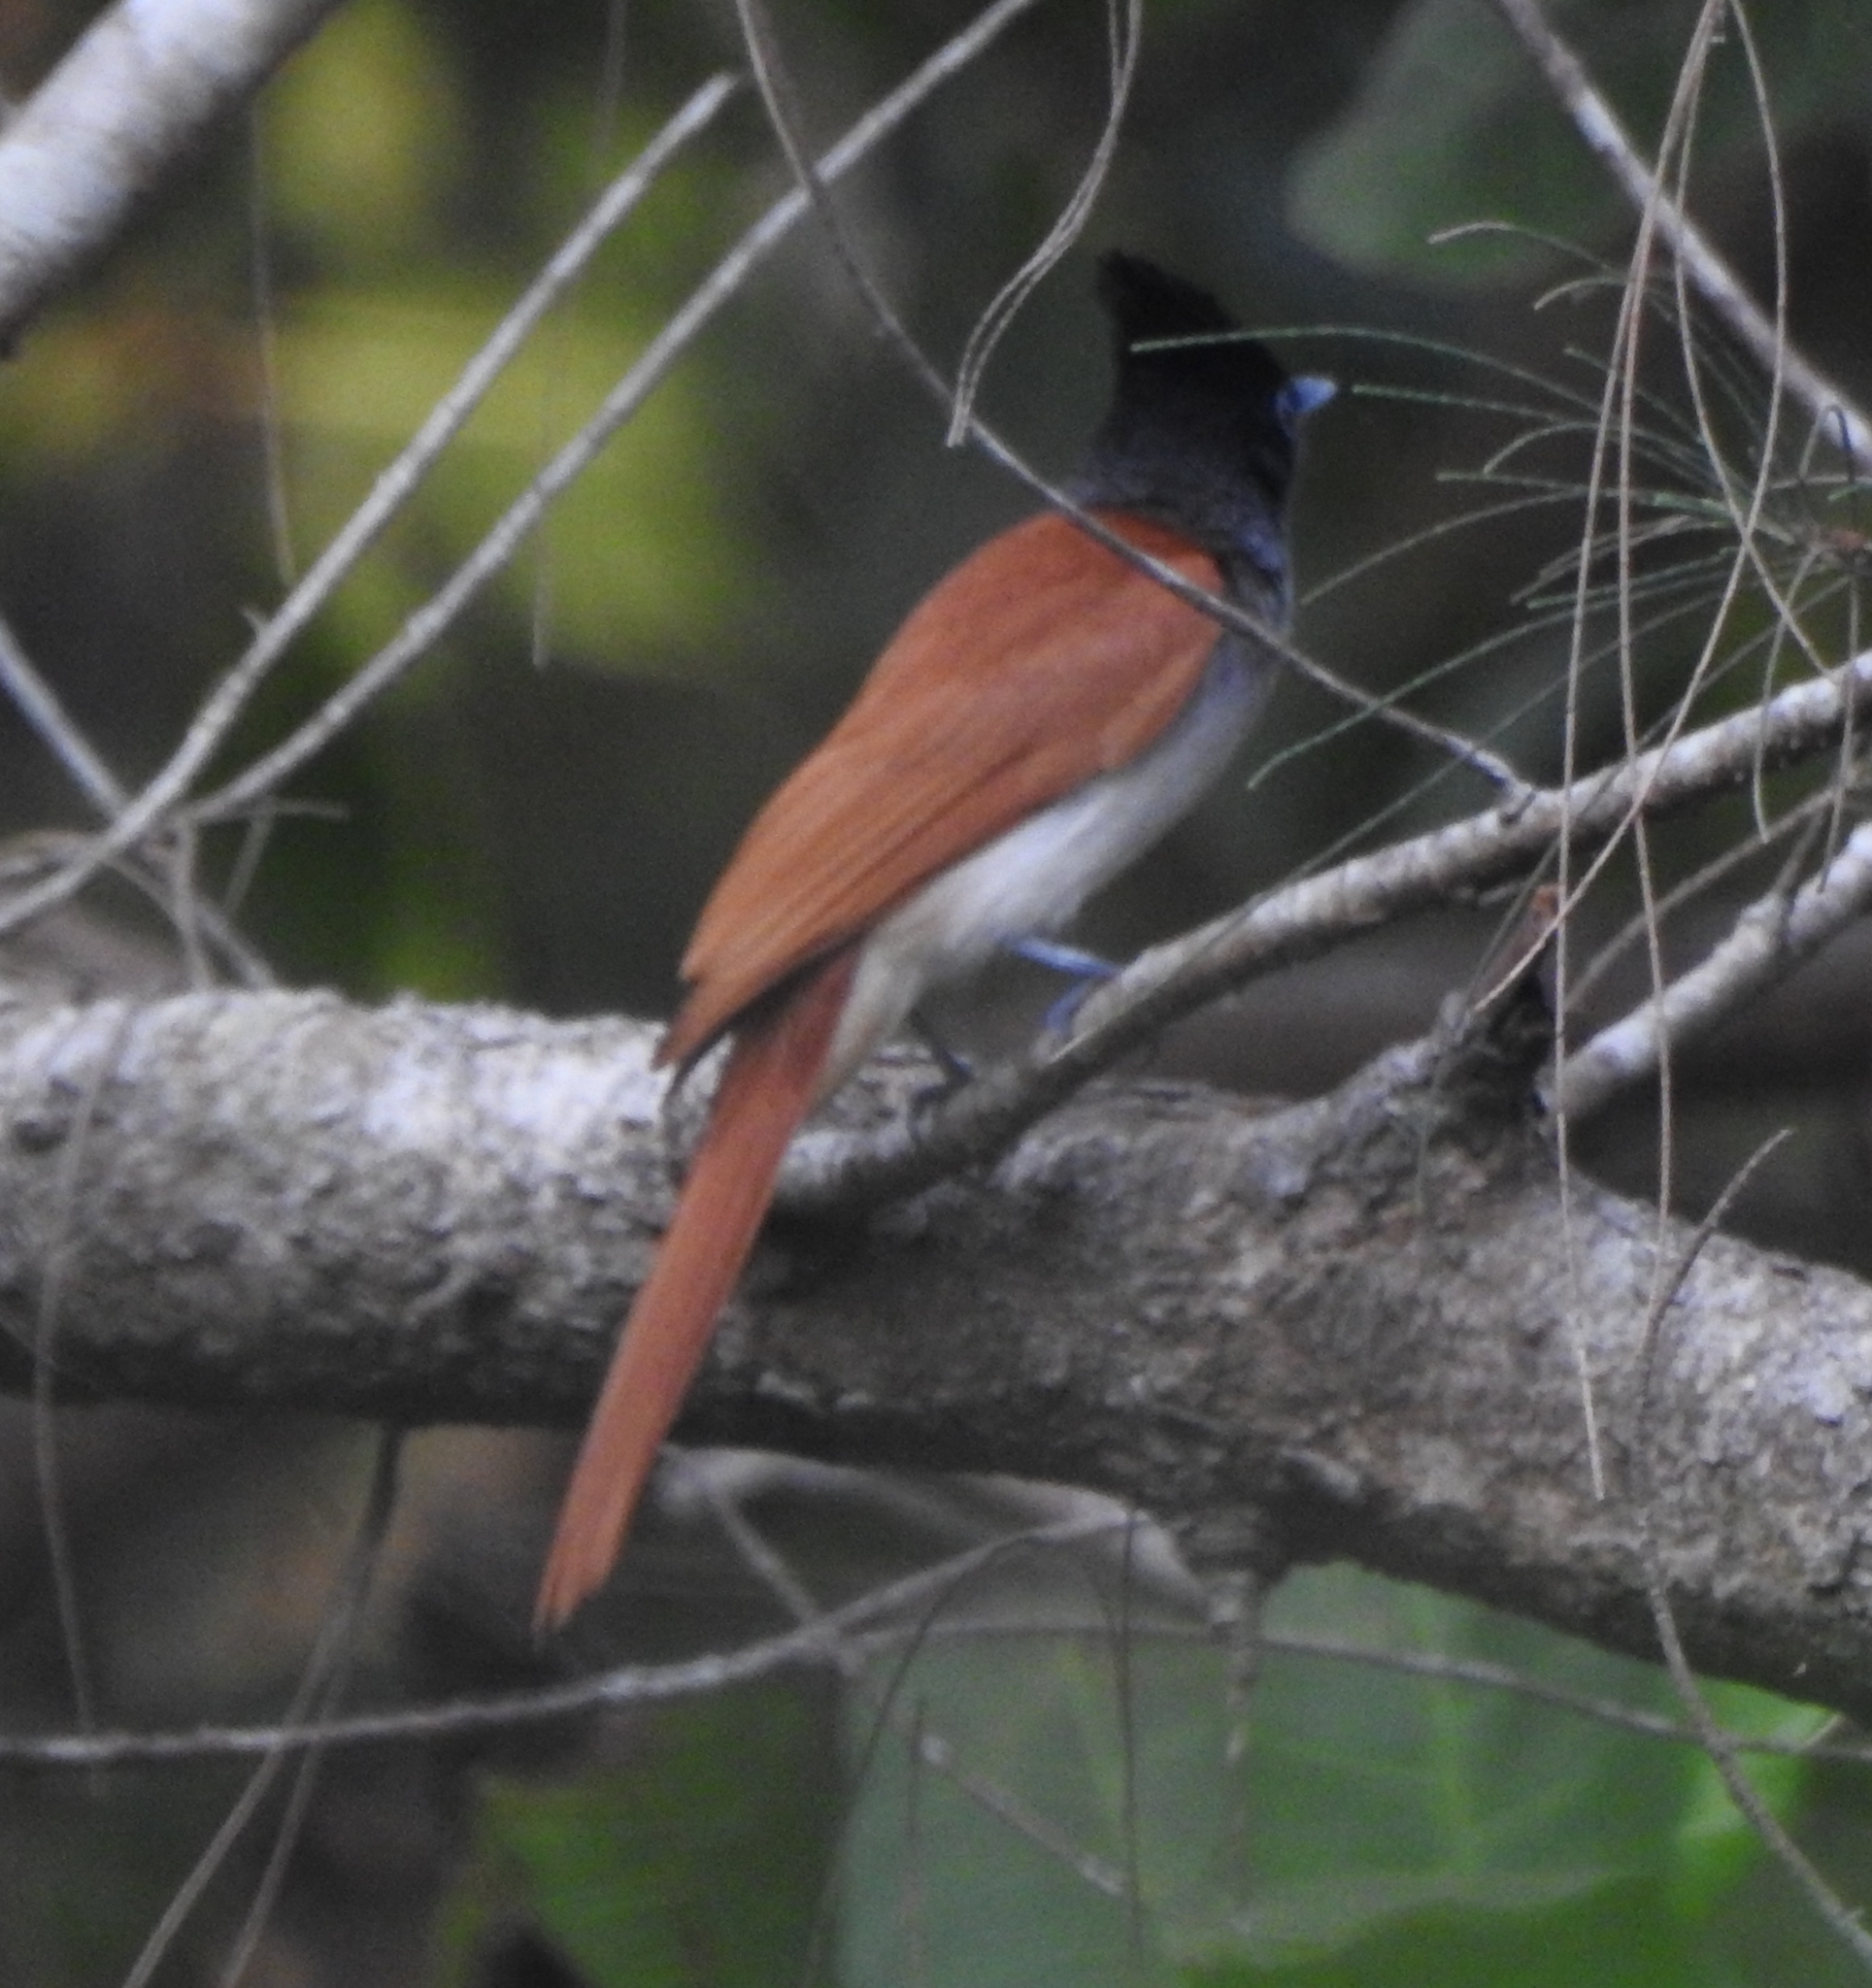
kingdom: Animalia
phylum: Chordata
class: Aves
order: Passeriformes
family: Monarchidae
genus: Terpsiphone
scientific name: Terpsiphone paradisi
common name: Indian paradise flycatcher
